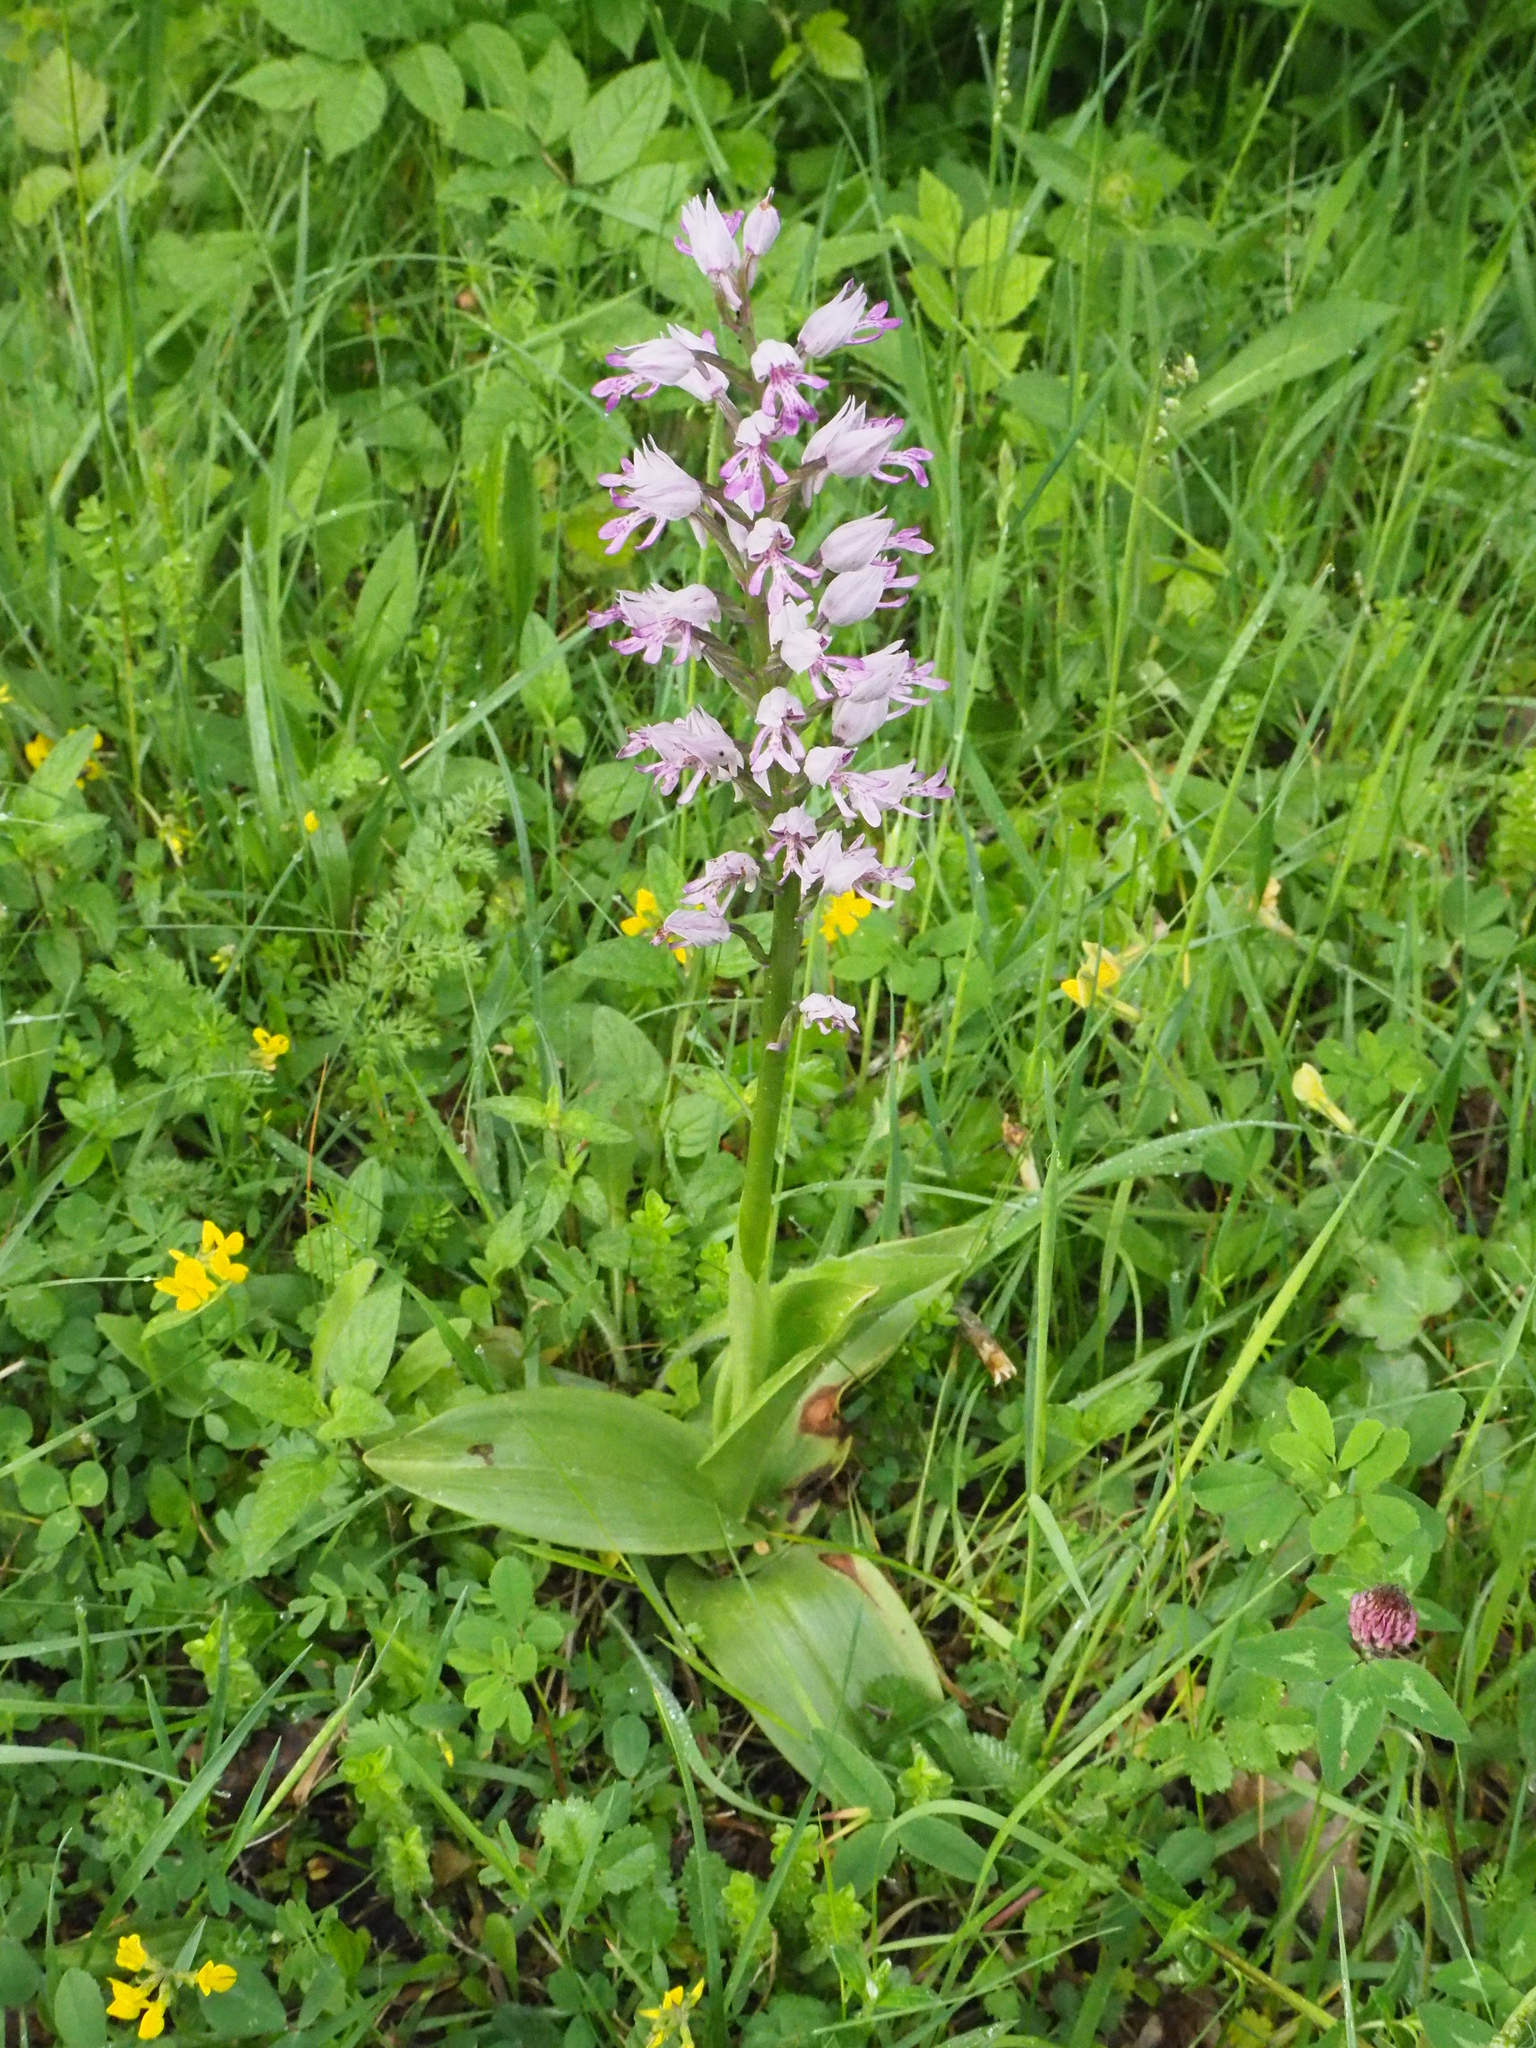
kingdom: Plantae
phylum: Tracheophyta
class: Liliopsida
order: Asparagales
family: Orchidaceae
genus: Orchis
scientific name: Orchis militaris
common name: Military orchid
